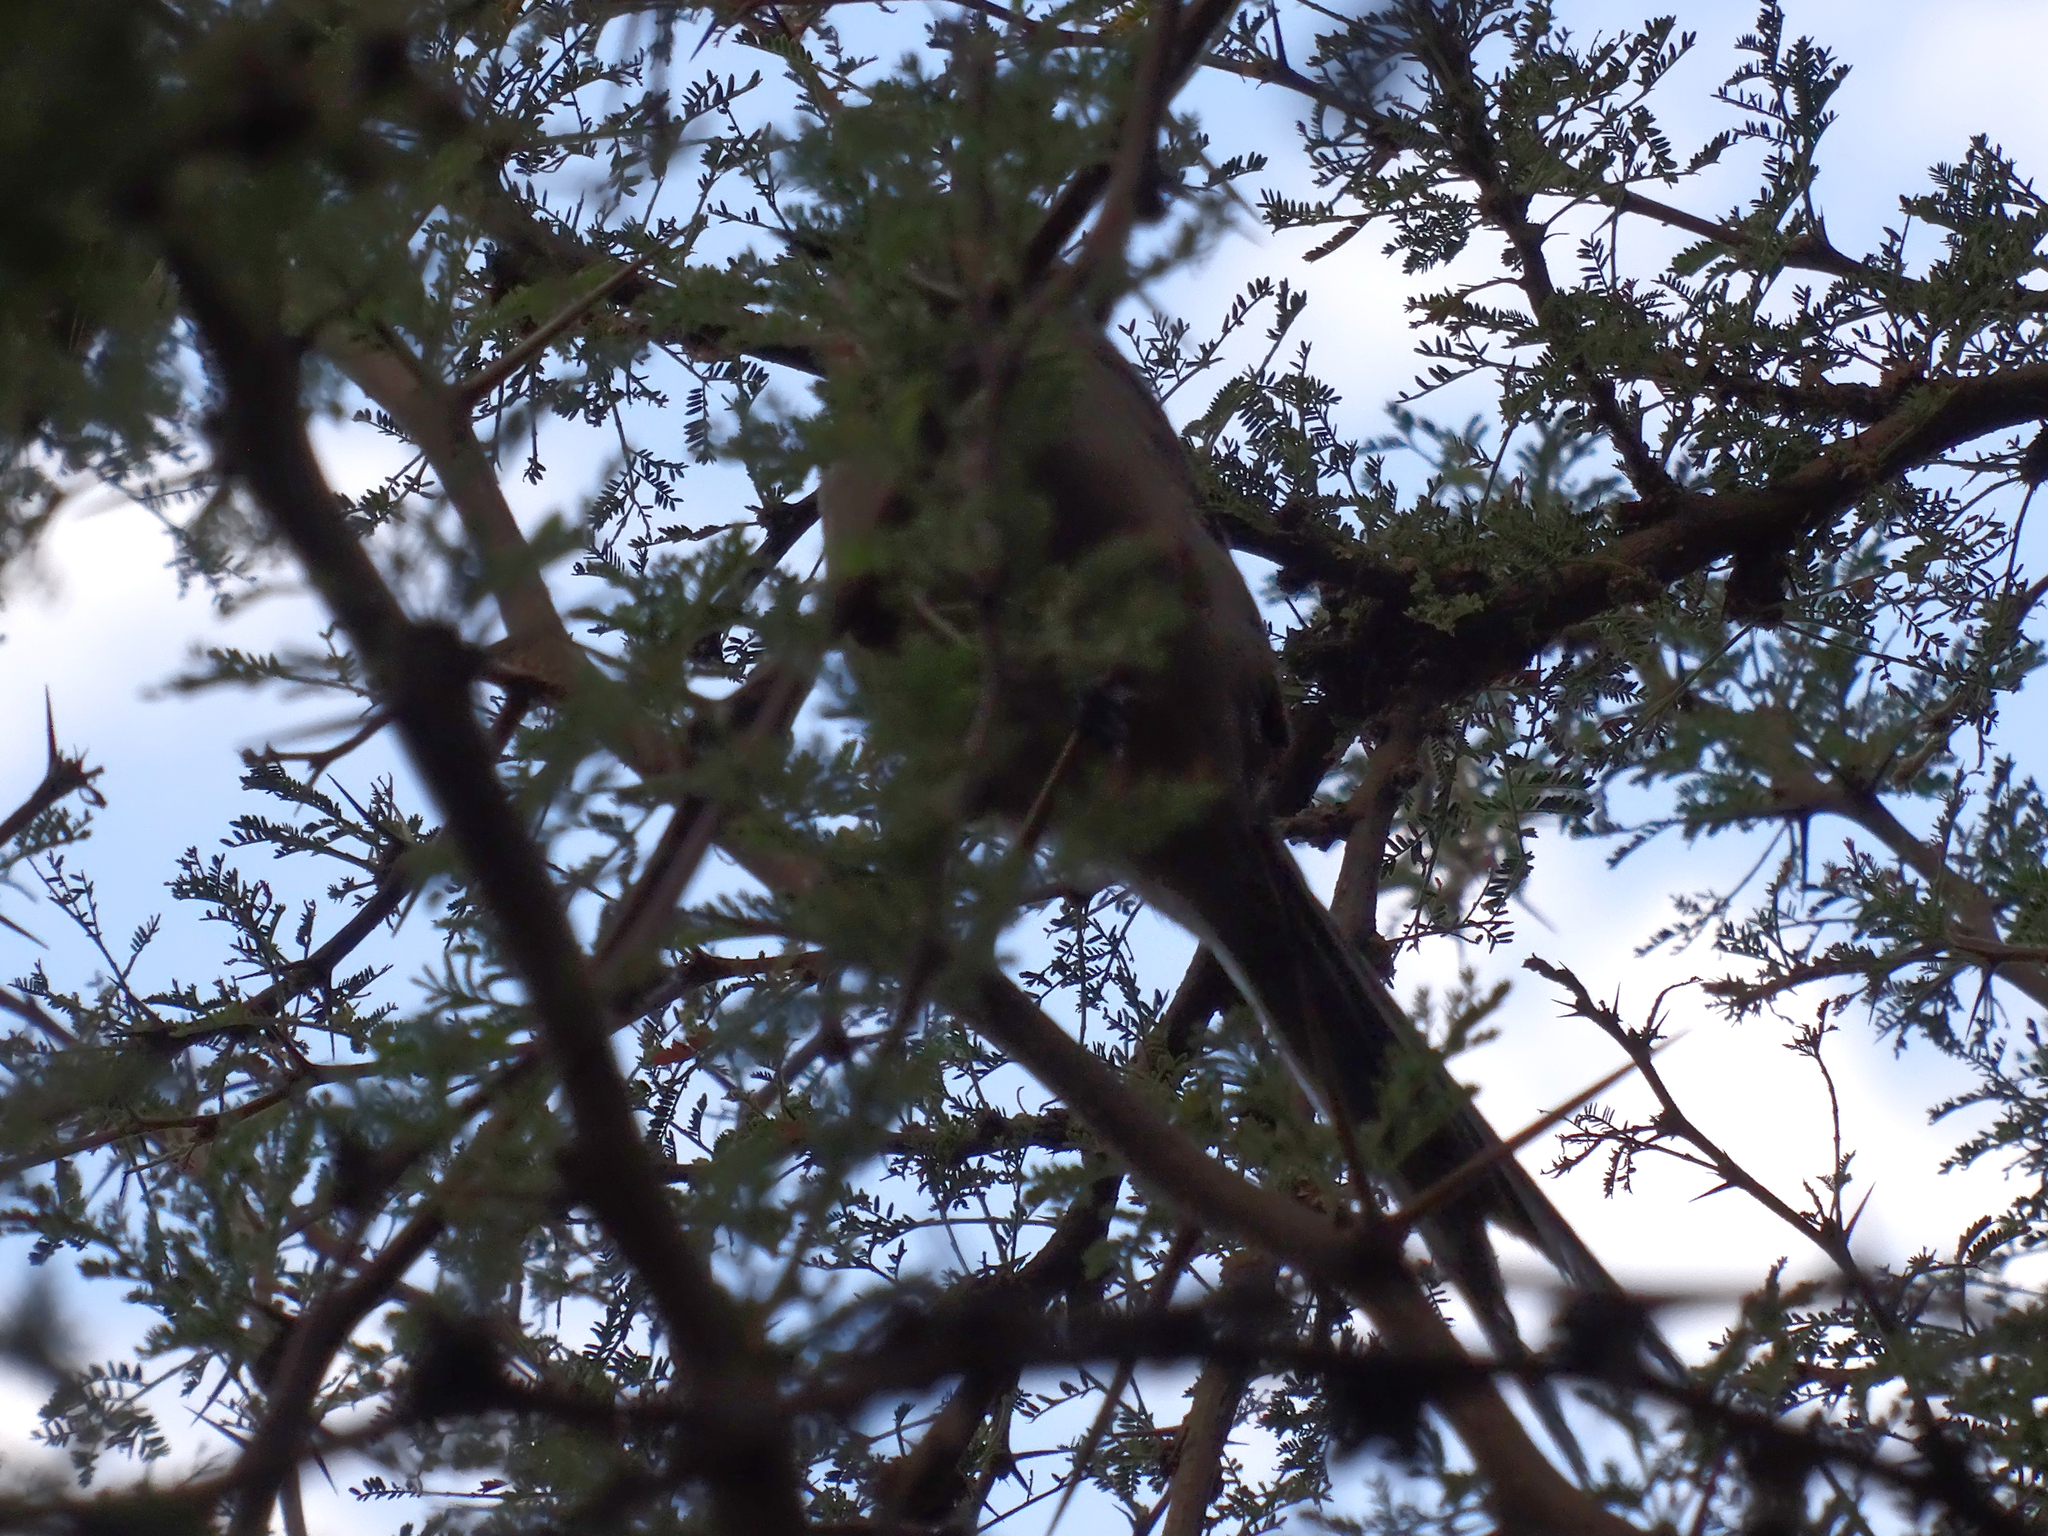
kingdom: Animalia
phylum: Chordata
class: Aves
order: Passeriformes
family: Furnariidae
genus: Leptasthenura
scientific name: Leptasthenura aegithaloides
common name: Plain-mantled tit-spinetail
